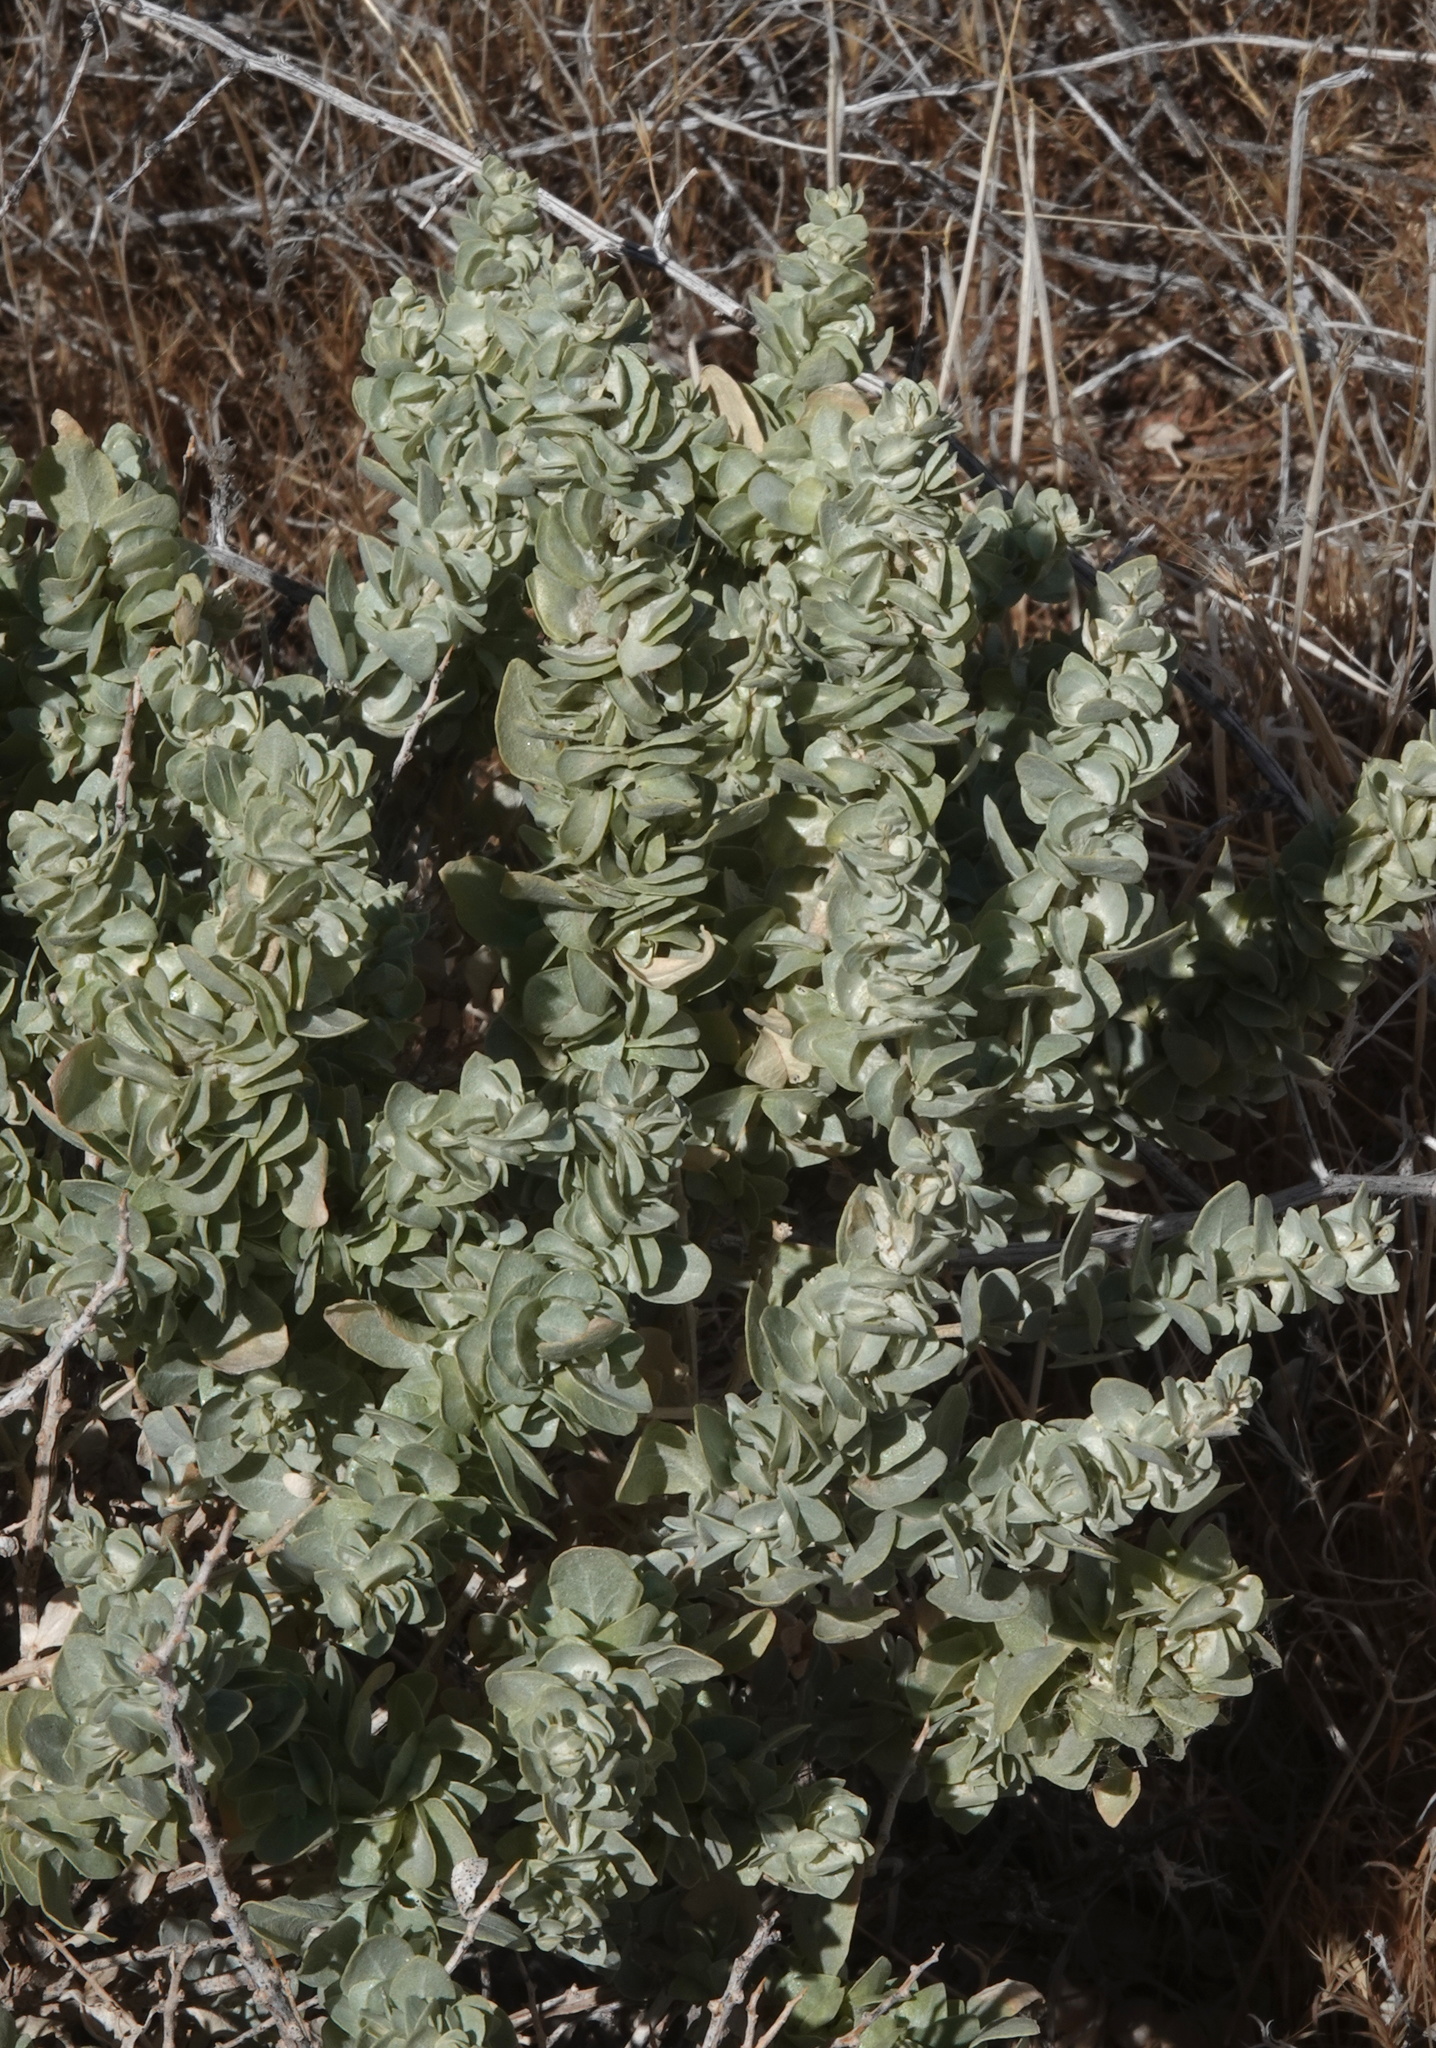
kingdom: Plantae
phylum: Tracheophyta
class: Magnoliopsida
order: Caryophyllales
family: Amaranthaceae
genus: Atriplex
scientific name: Atriplex confertifolia
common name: Shadscale
